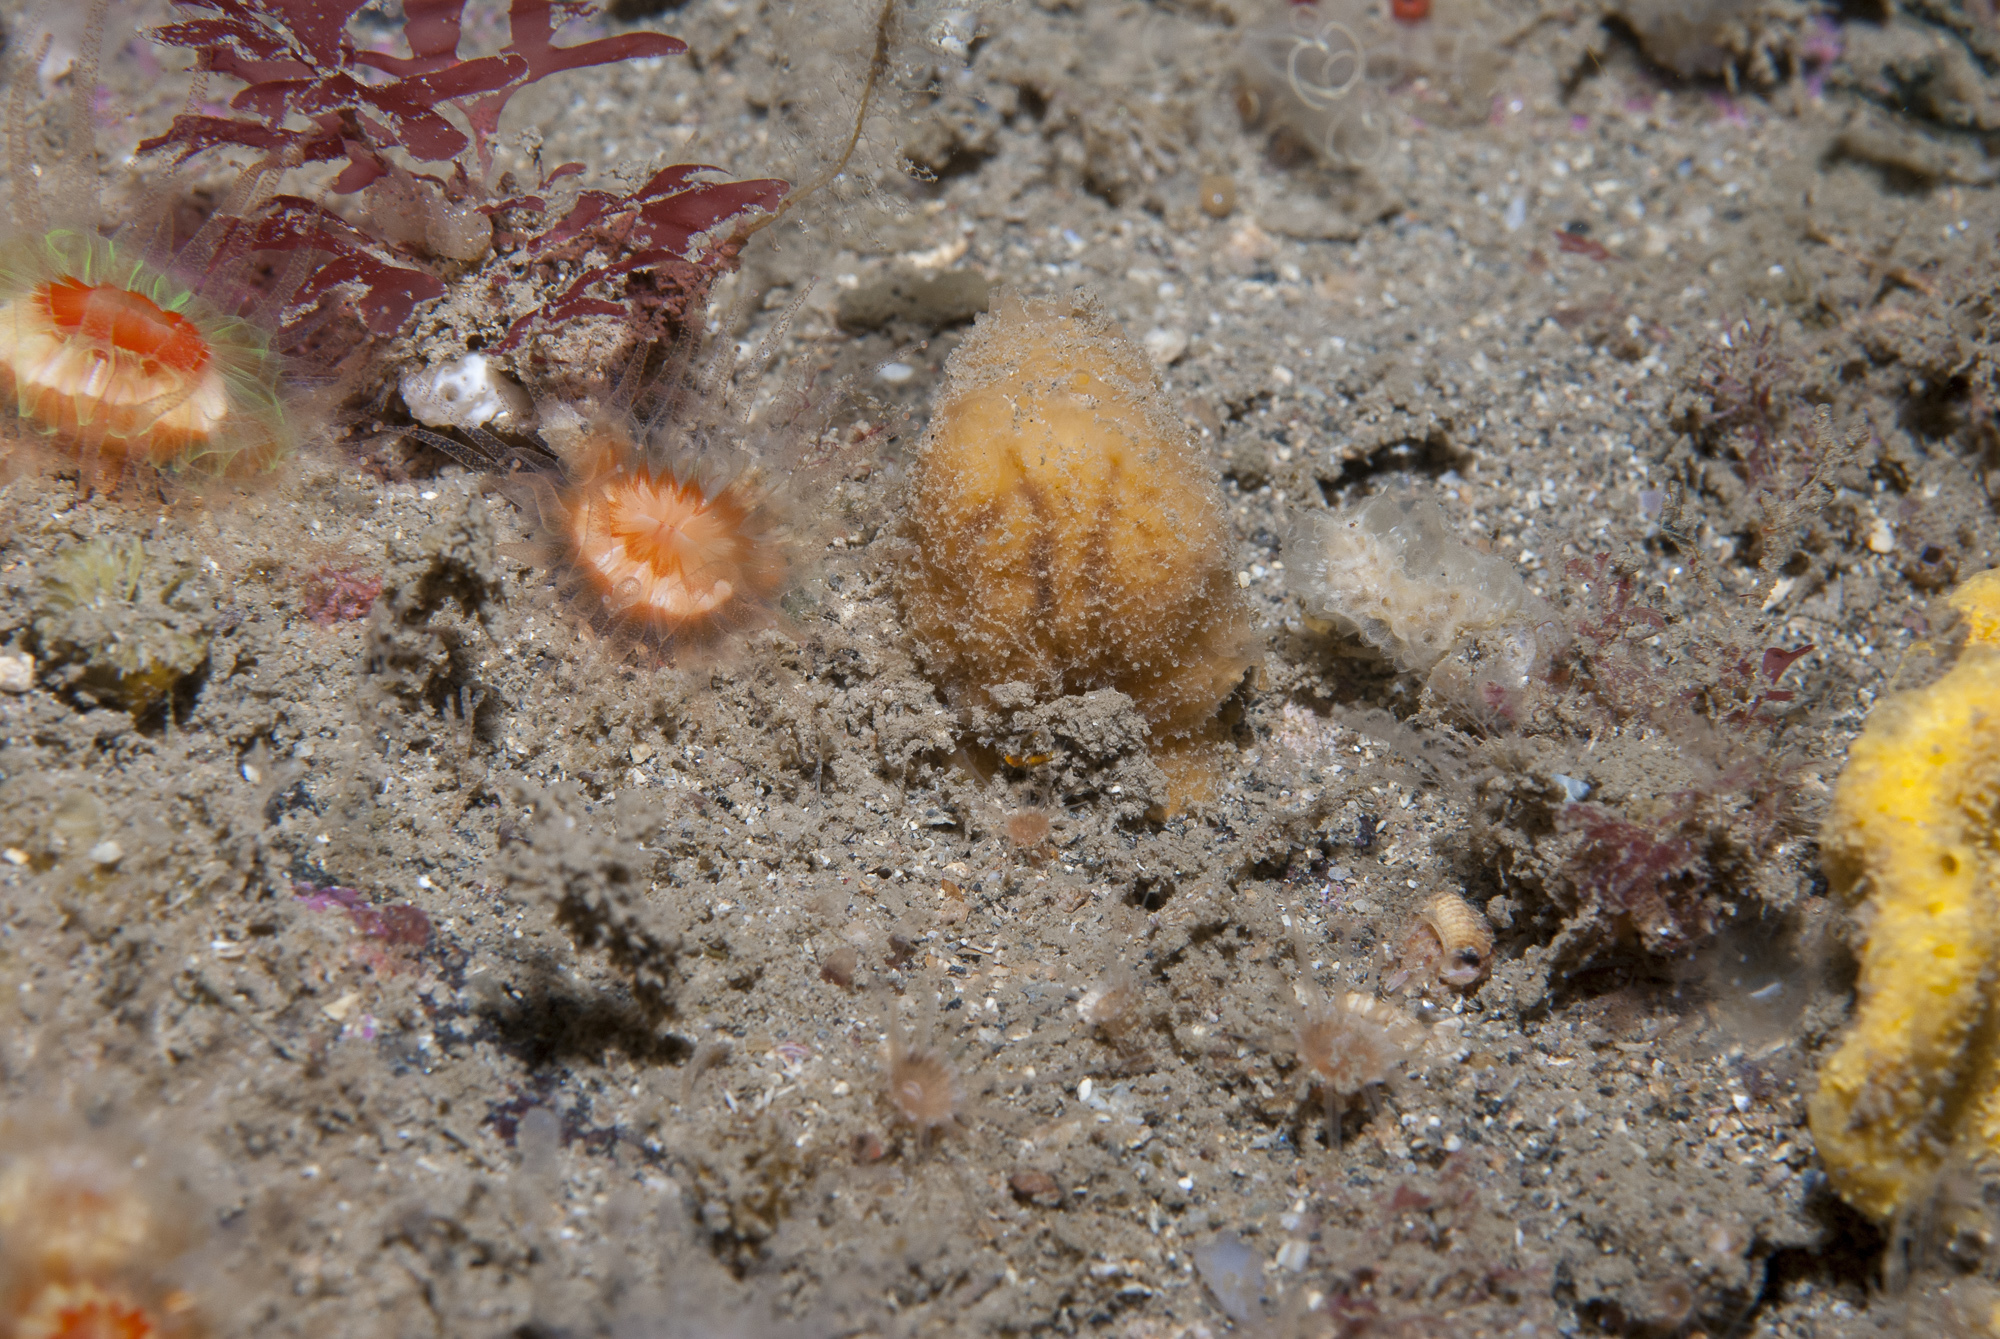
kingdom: Animalia
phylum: Porifera
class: Demospongiae
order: Axinellida
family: Axinellidae
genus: Axinella
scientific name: Axinella parva
